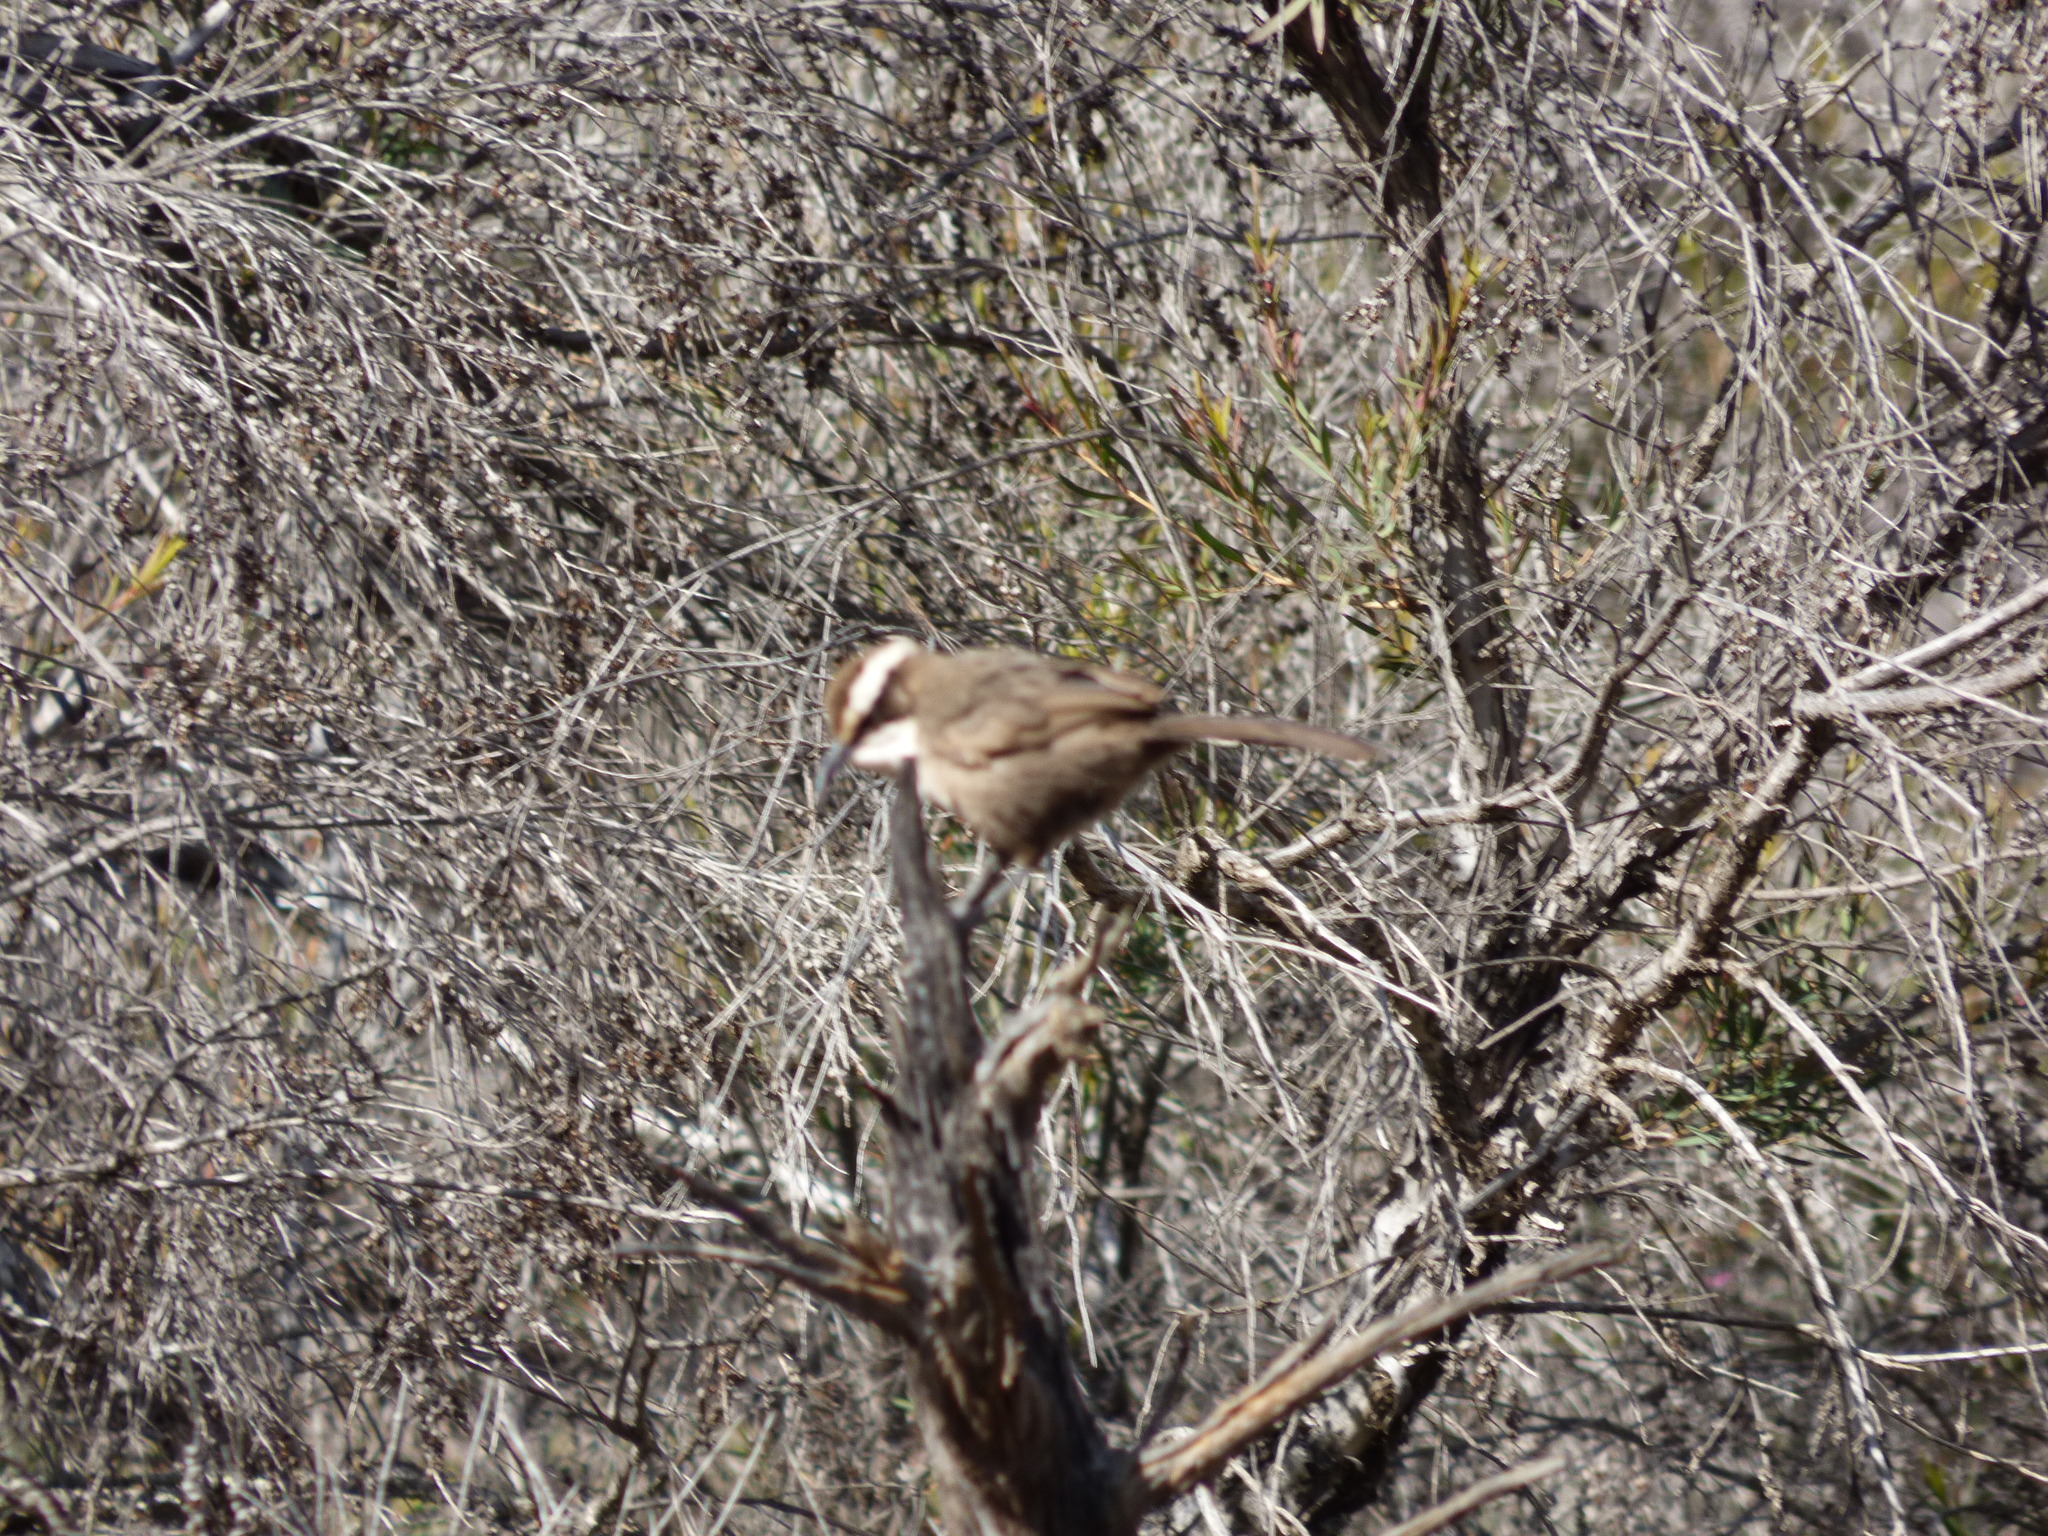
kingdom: Animalia
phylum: Chordata
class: Aves
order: Passeriformes
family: Pomatostomidae
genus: Pomatostomus
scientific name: Pomatostomus superciliosus
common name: White-browed babbler
